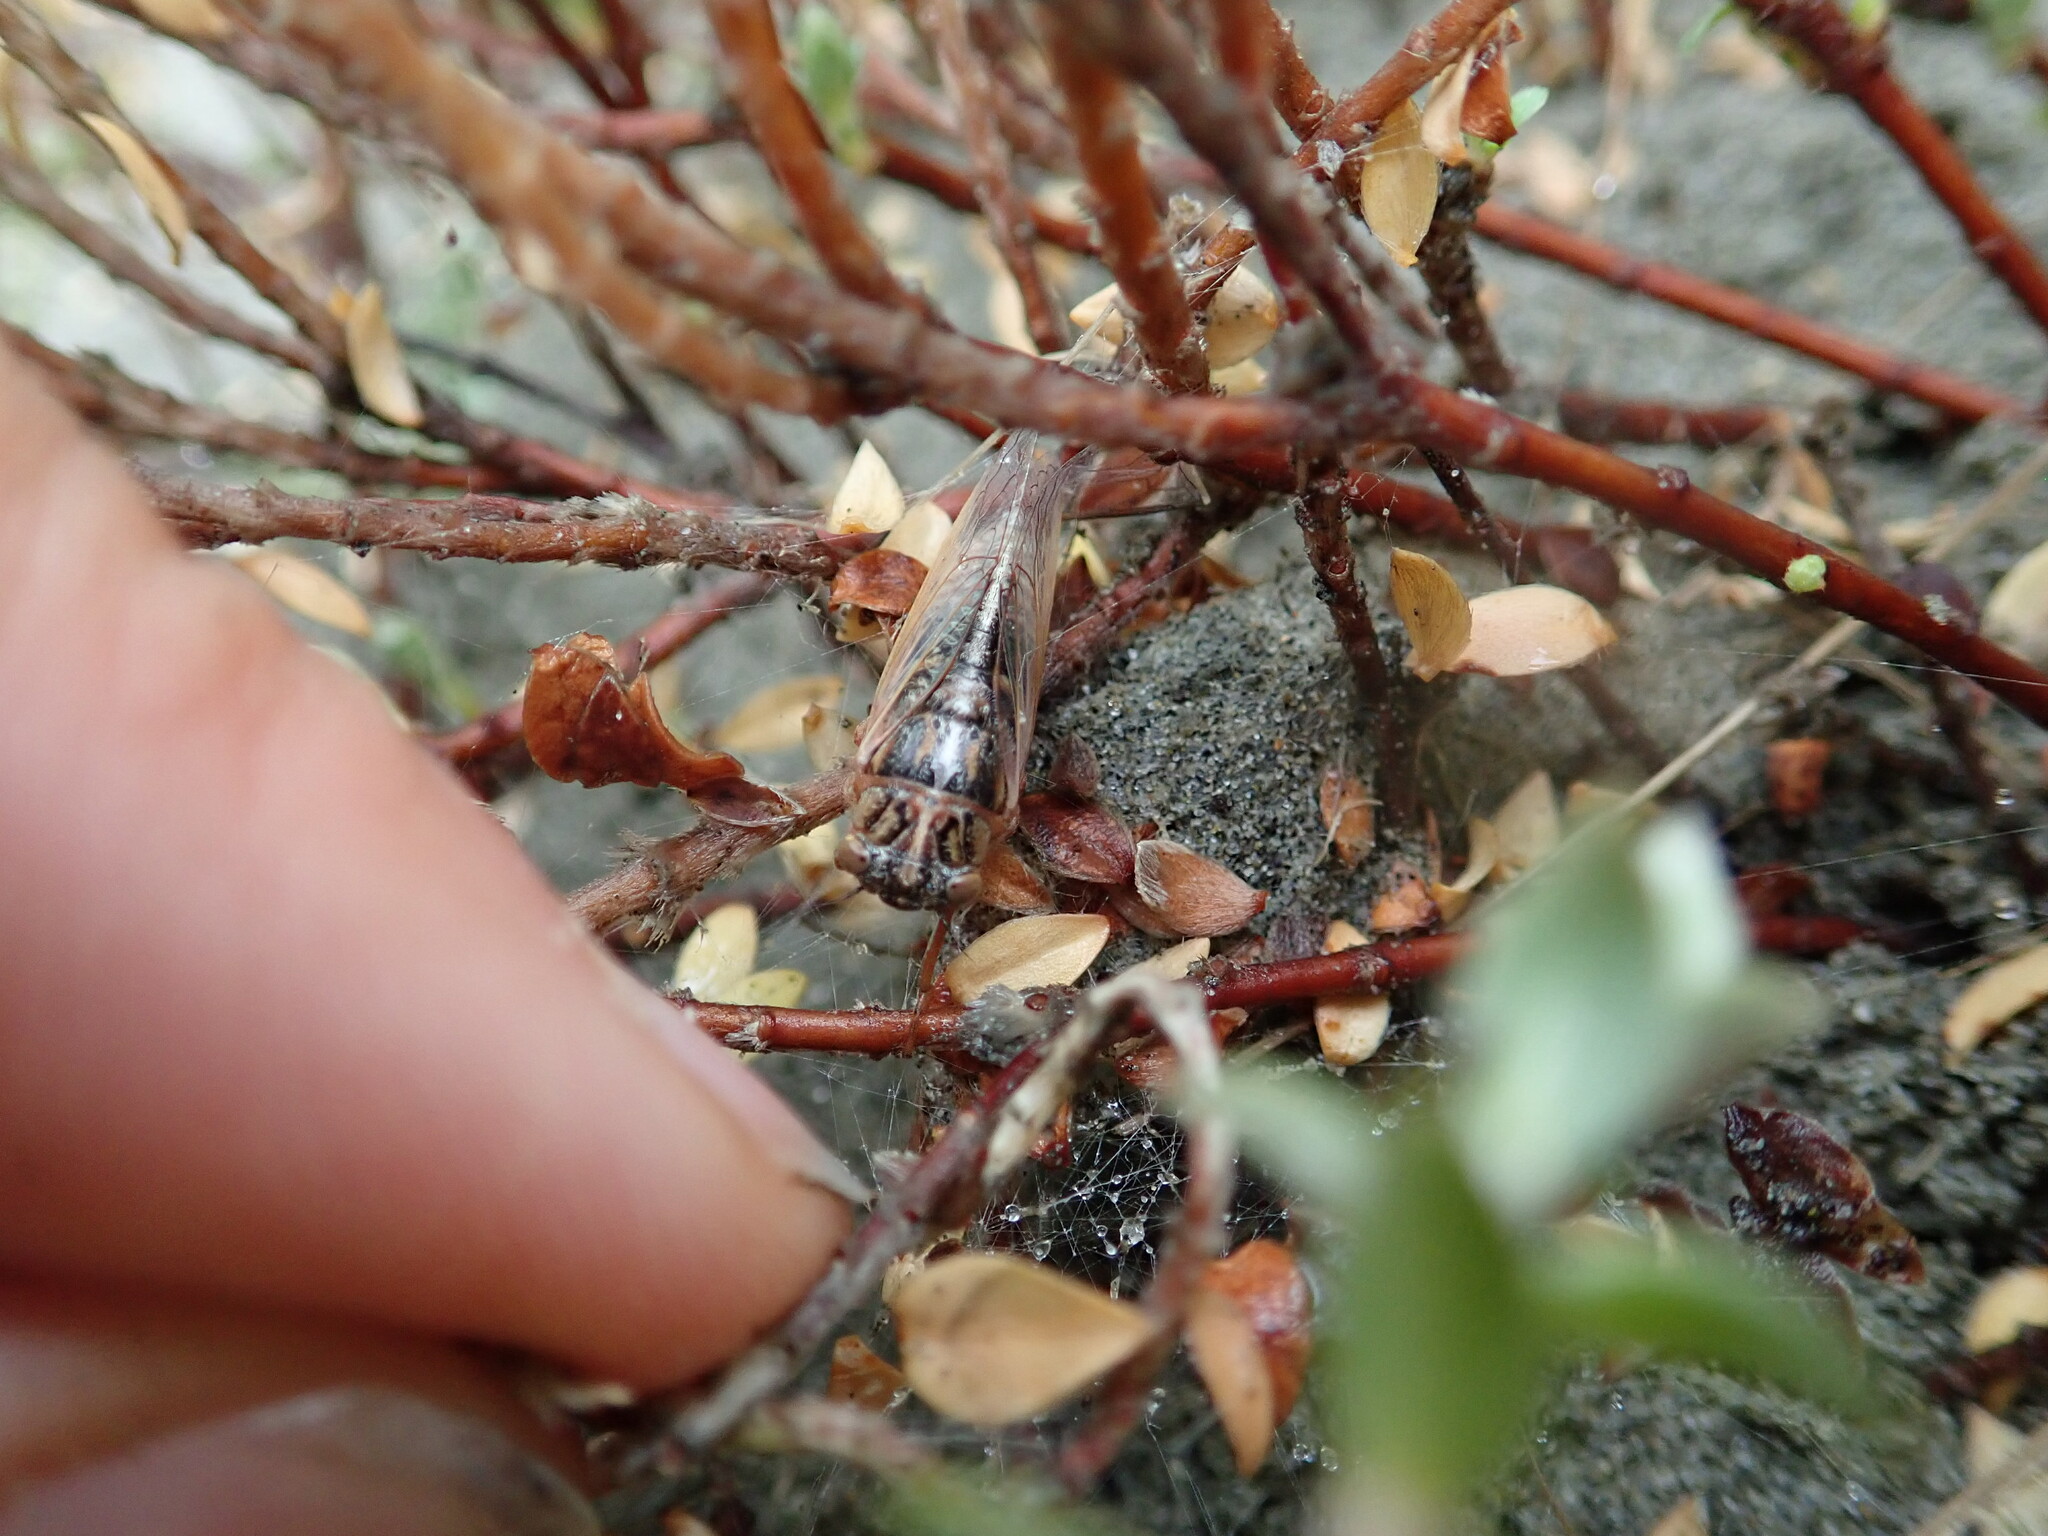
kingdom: Plantae
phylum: Tracheophyta
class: Magnoliopsida
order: Malvales
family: Thymelaeaceae
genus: Pimelea
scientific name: Pimelea villosa
